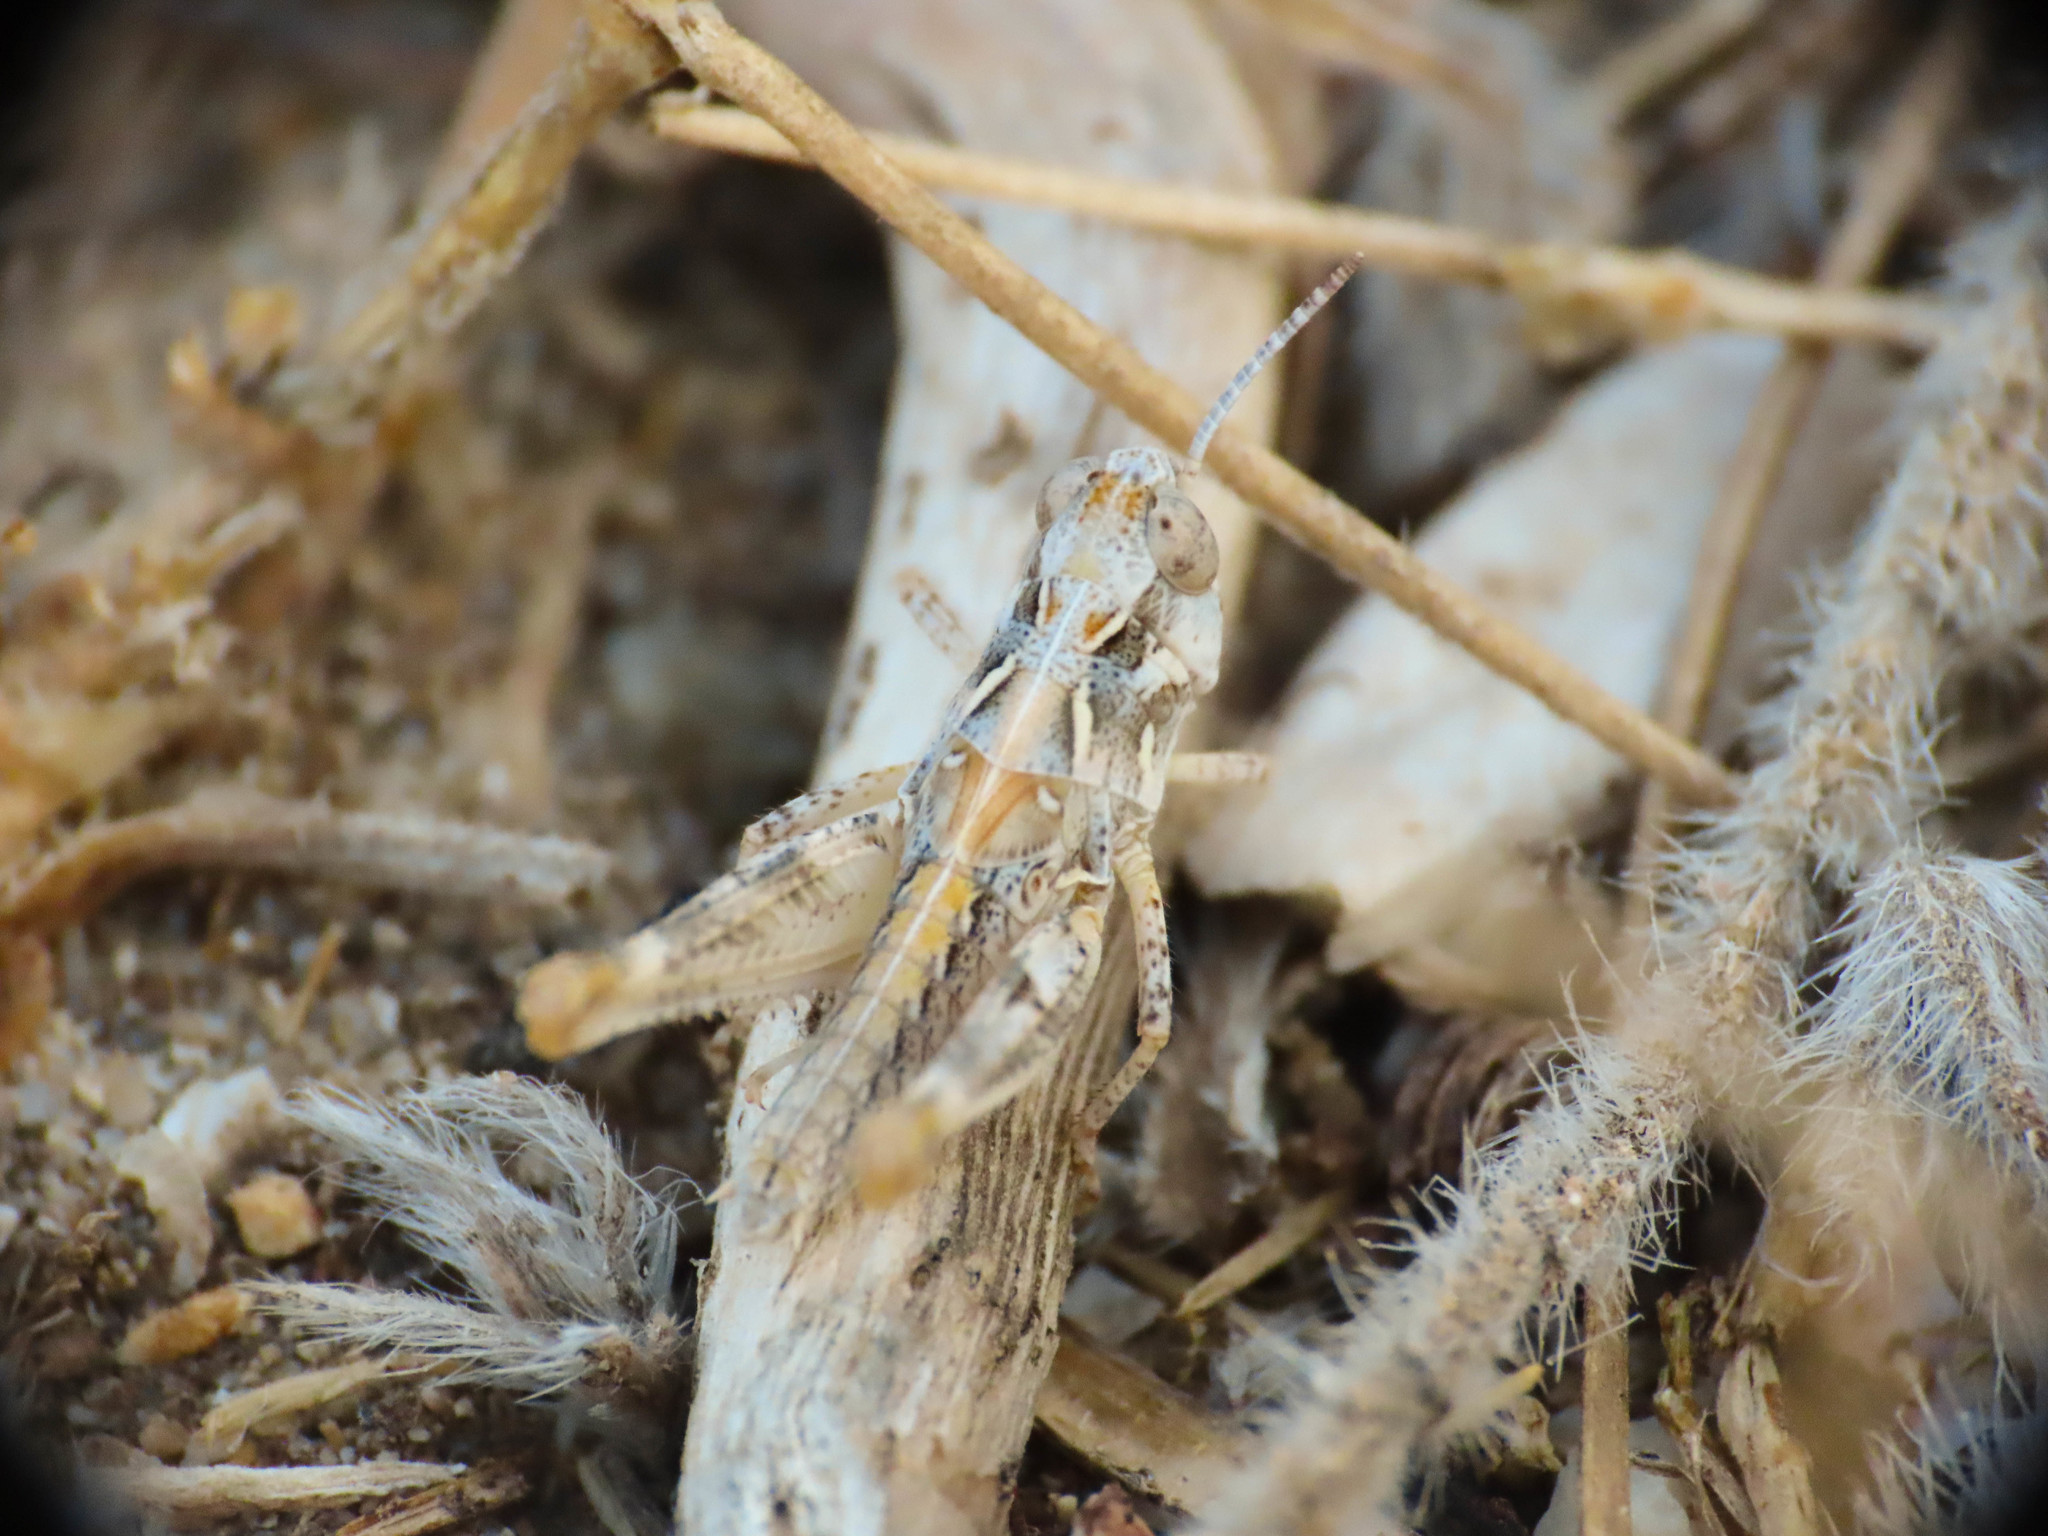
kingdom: Animalia
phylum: Arthropoda
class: Insecta
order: Orthoptera
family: Acrididae
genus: Dociostaurus
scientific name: Dociostaurus jagoi
